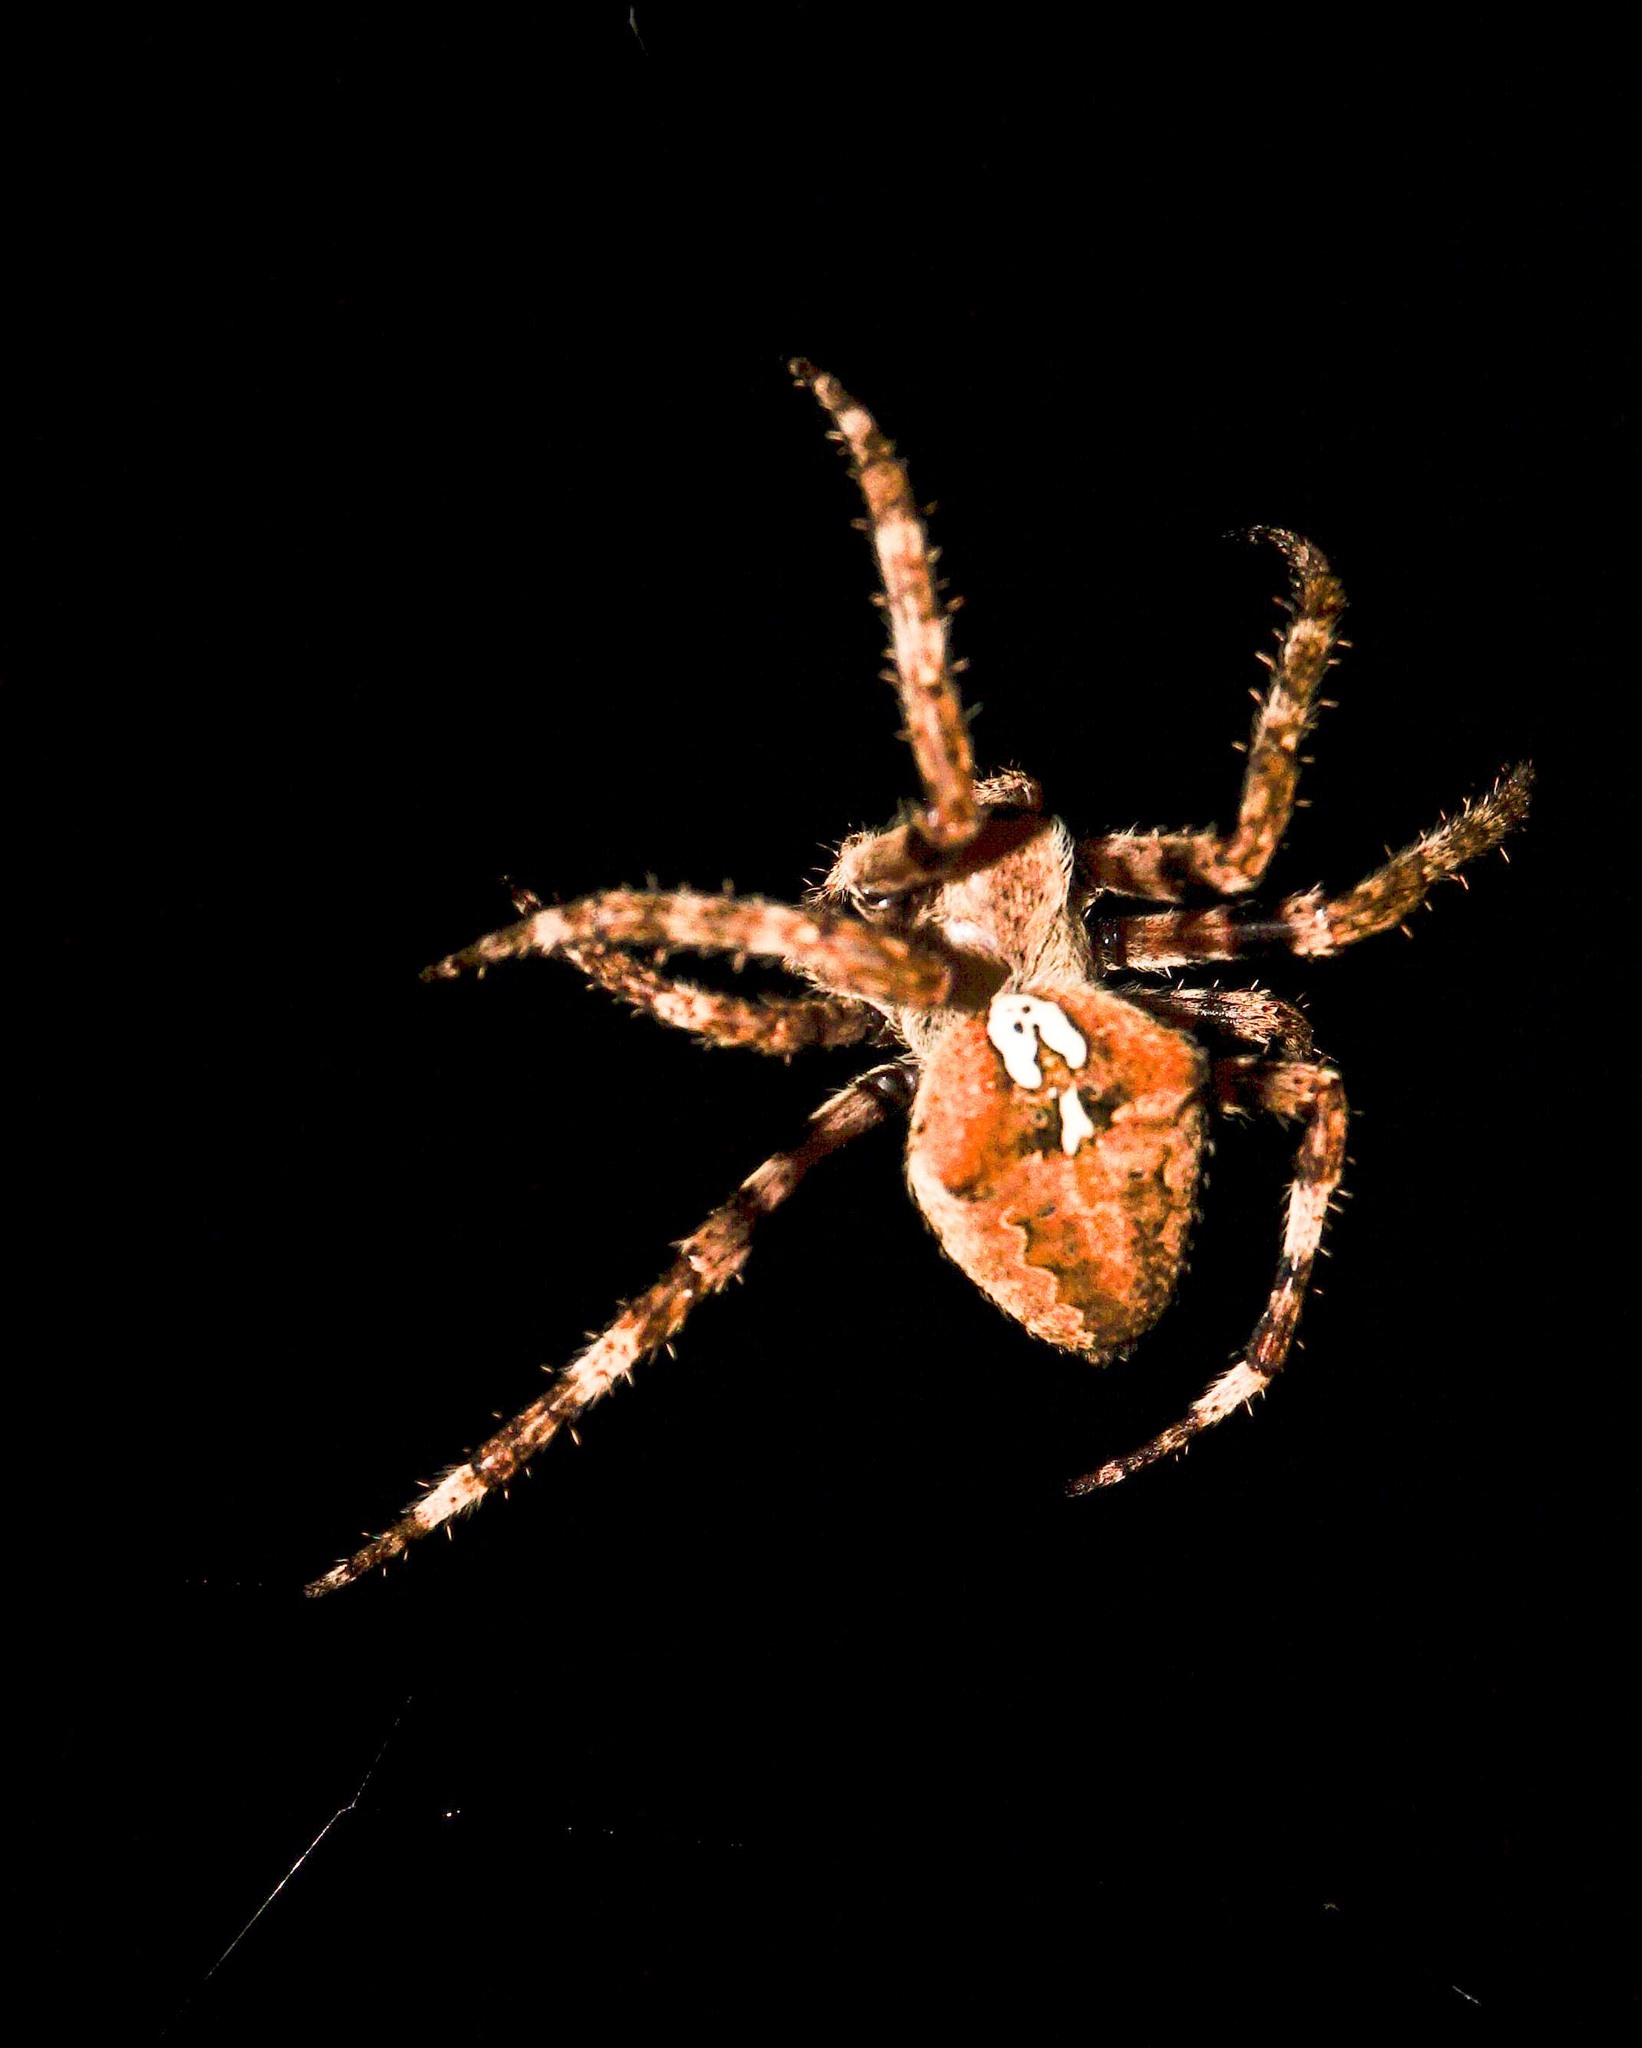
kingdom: Animalia
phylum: Arthropoda
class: Arachnida
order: Araneae
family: Araneidae
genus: Araneus
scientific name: Araneus angulatus
